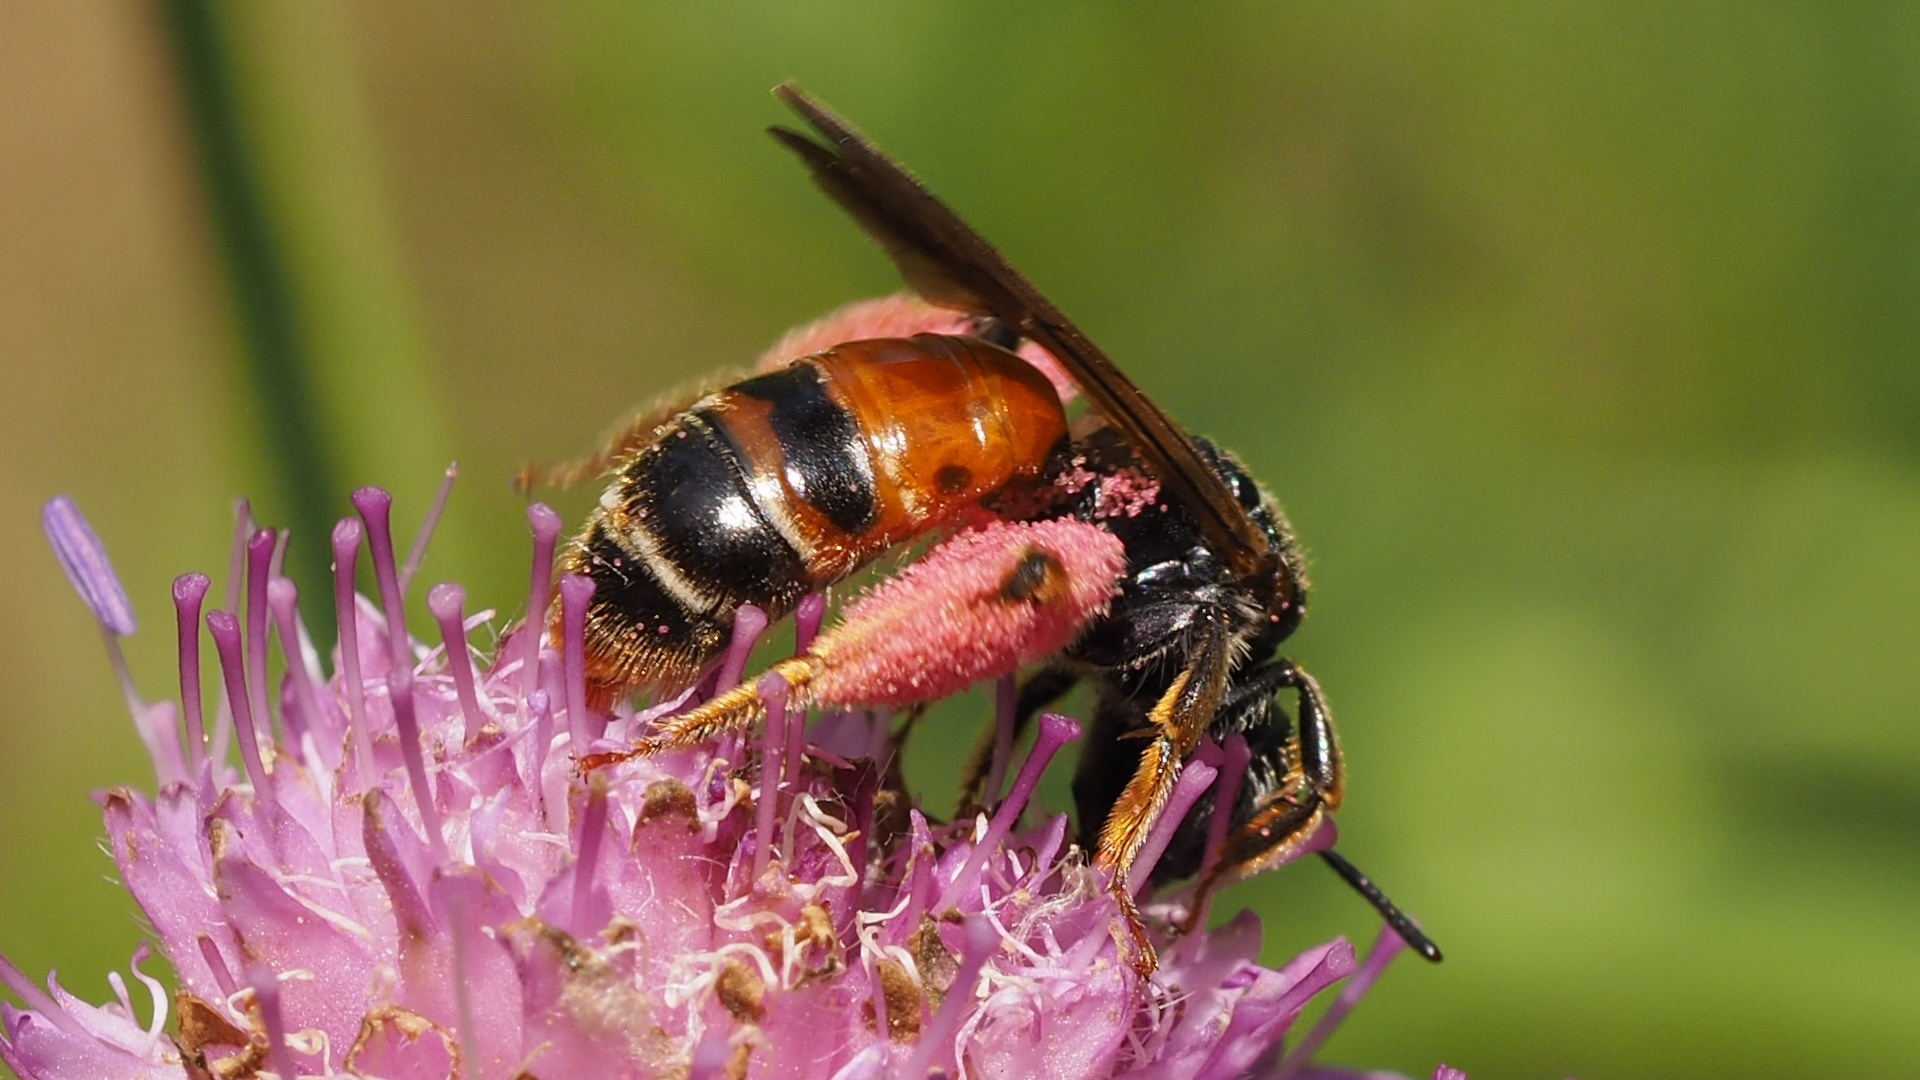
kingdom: Animalia
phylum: Arthropoda
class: Insecta
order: Hymenoptera
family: Andrenidae
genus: Andrena
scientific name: Andrena hattorfiana
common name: Large scabious mining bee
